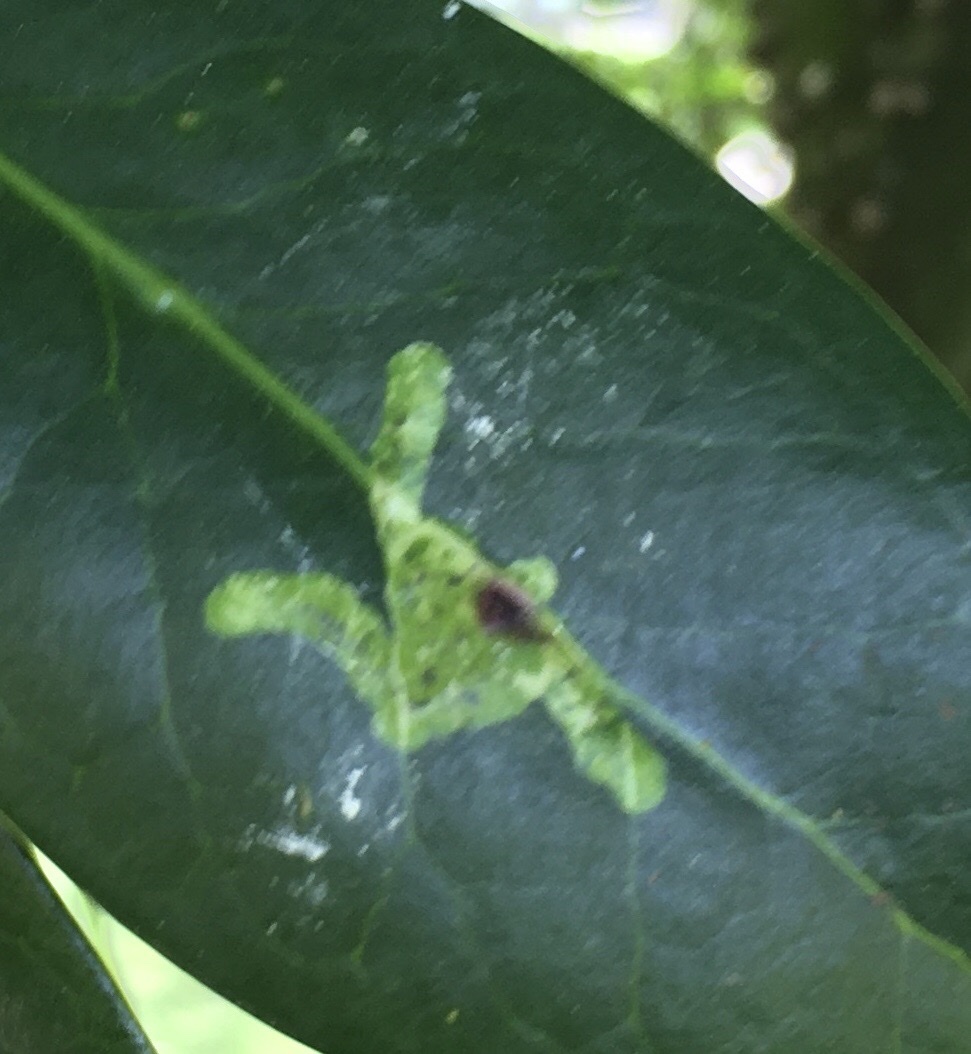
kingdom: Animalia
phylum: Arthropoda
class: Insecta
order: Diptera
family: Agromyzidae
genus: Phytomyza
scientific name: Phytomyza ilicis
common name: Holly leafminer
